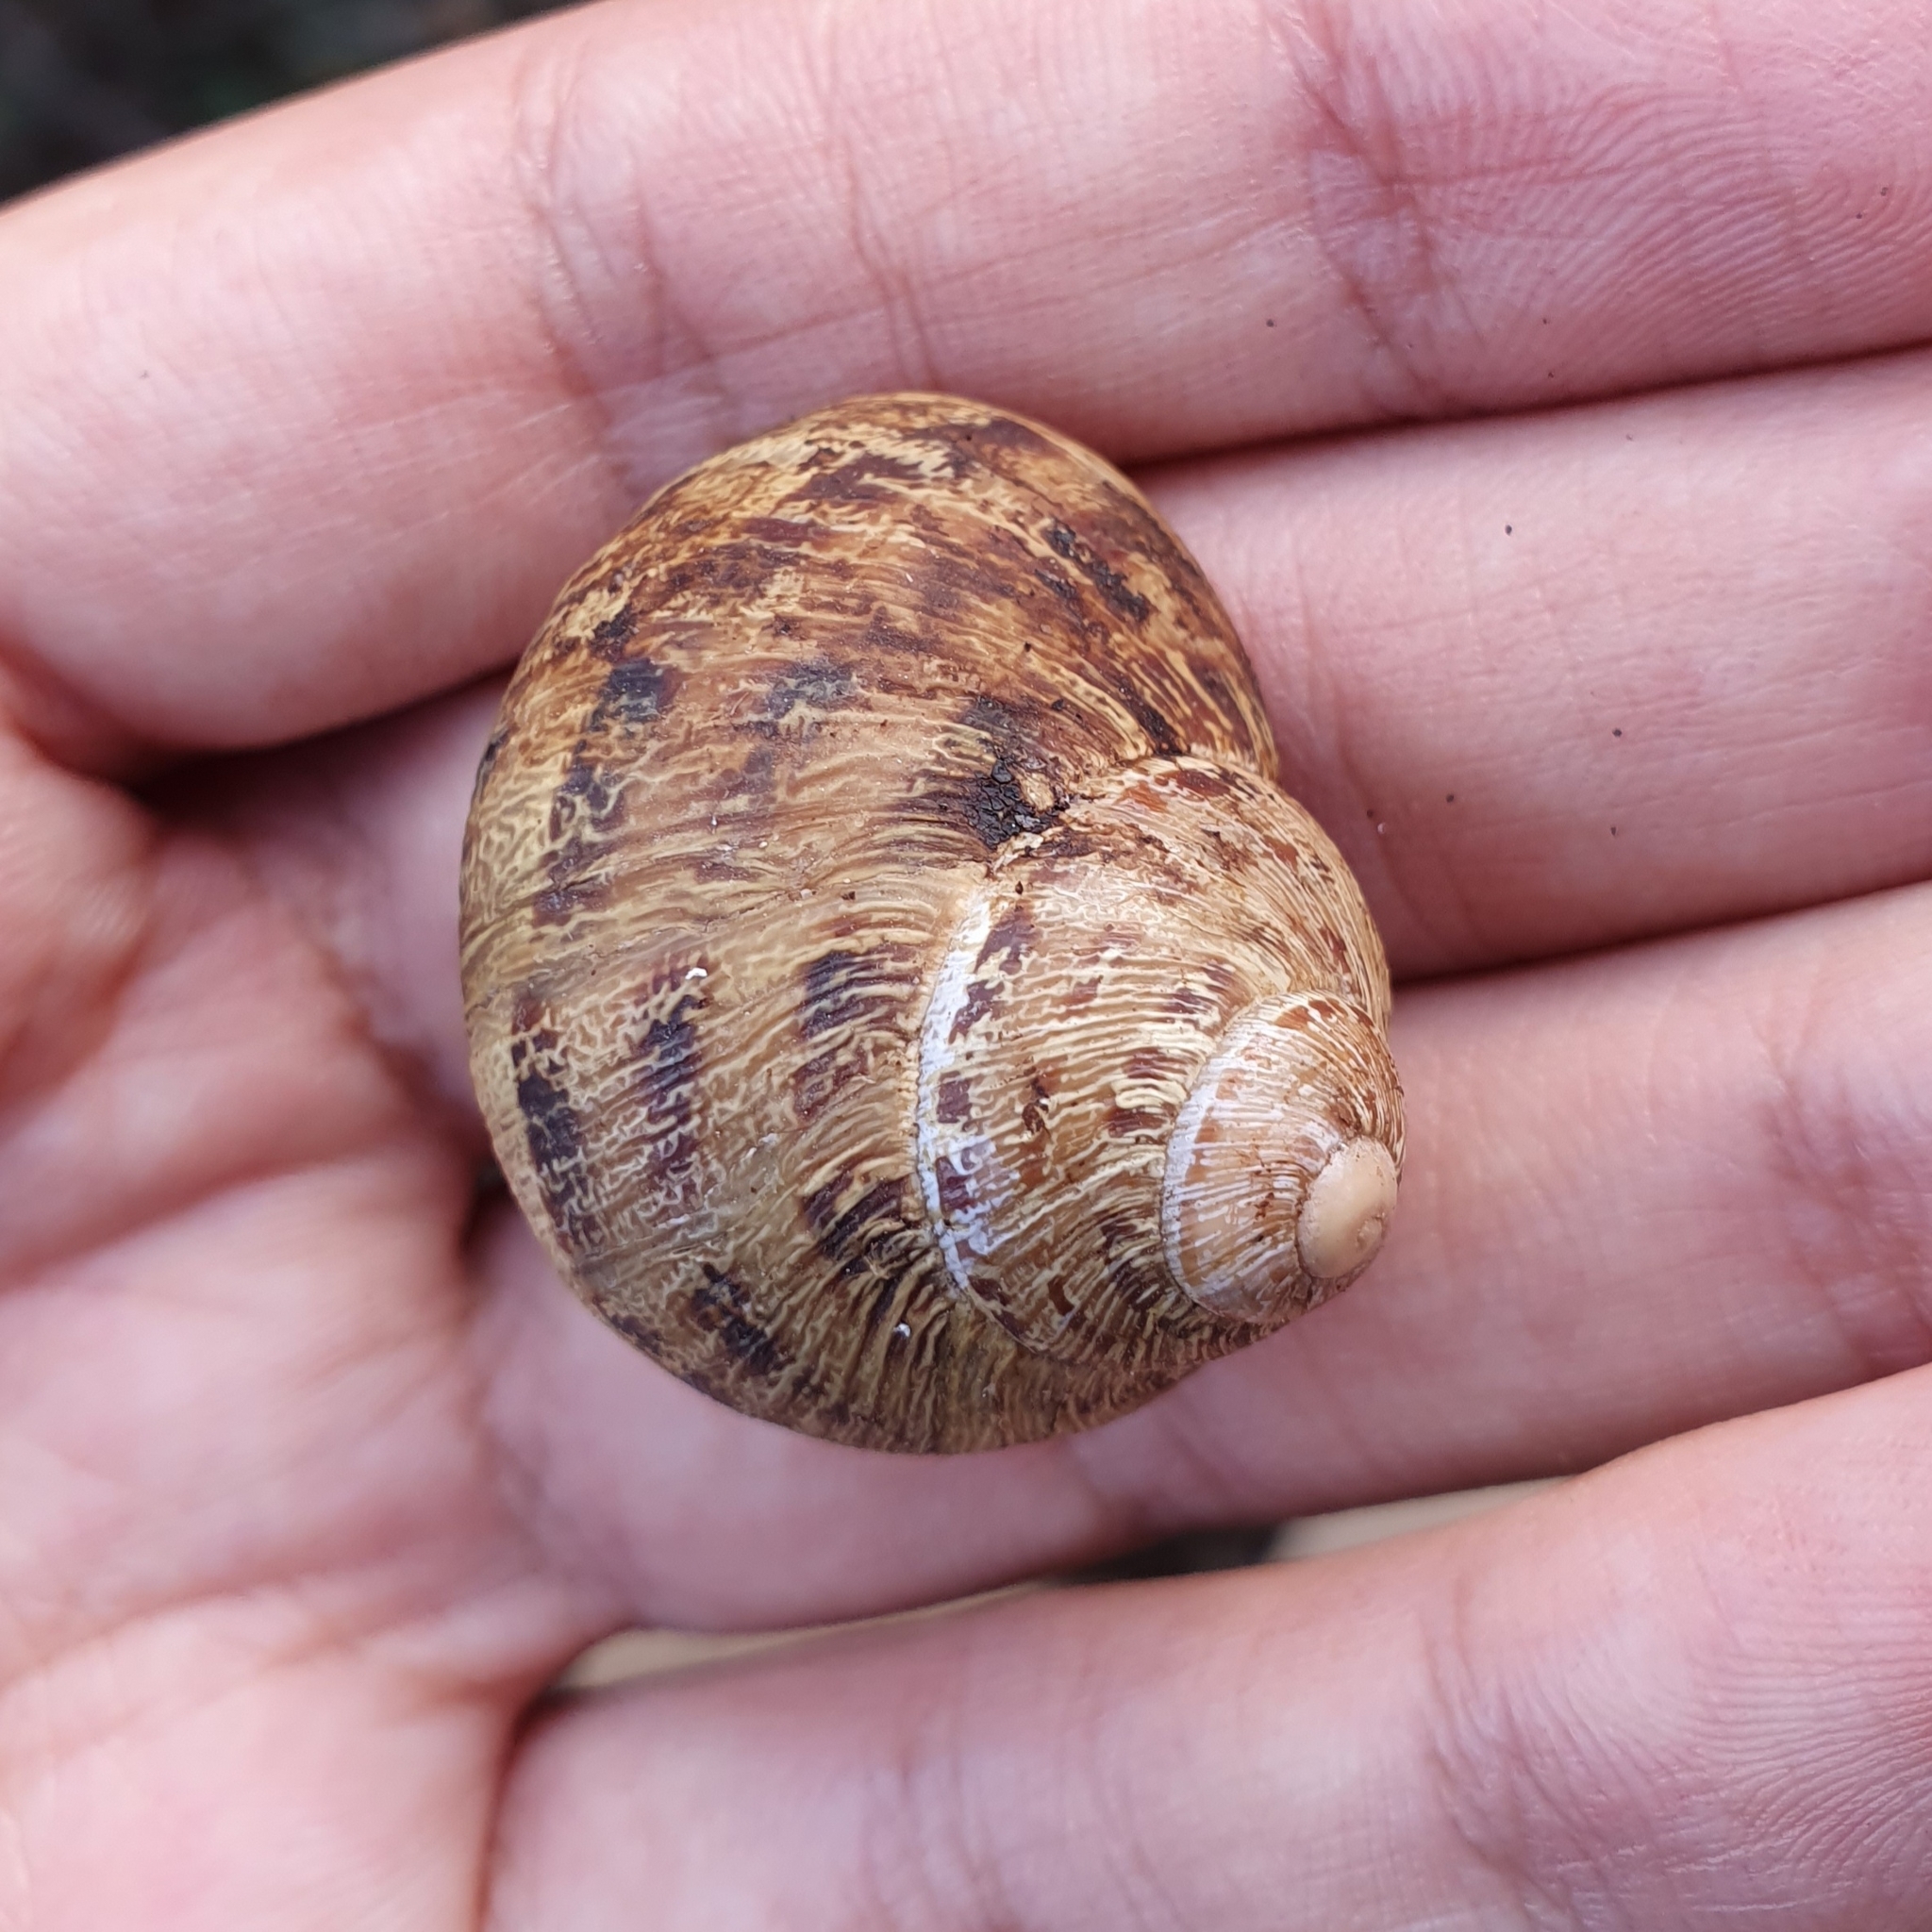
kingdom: Animalia
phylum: Mollusca
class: Gastropoda
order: Stylommatophora
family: Helicidae
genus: Cornu
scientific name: Cornu aspersum
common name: Brown garden snail
